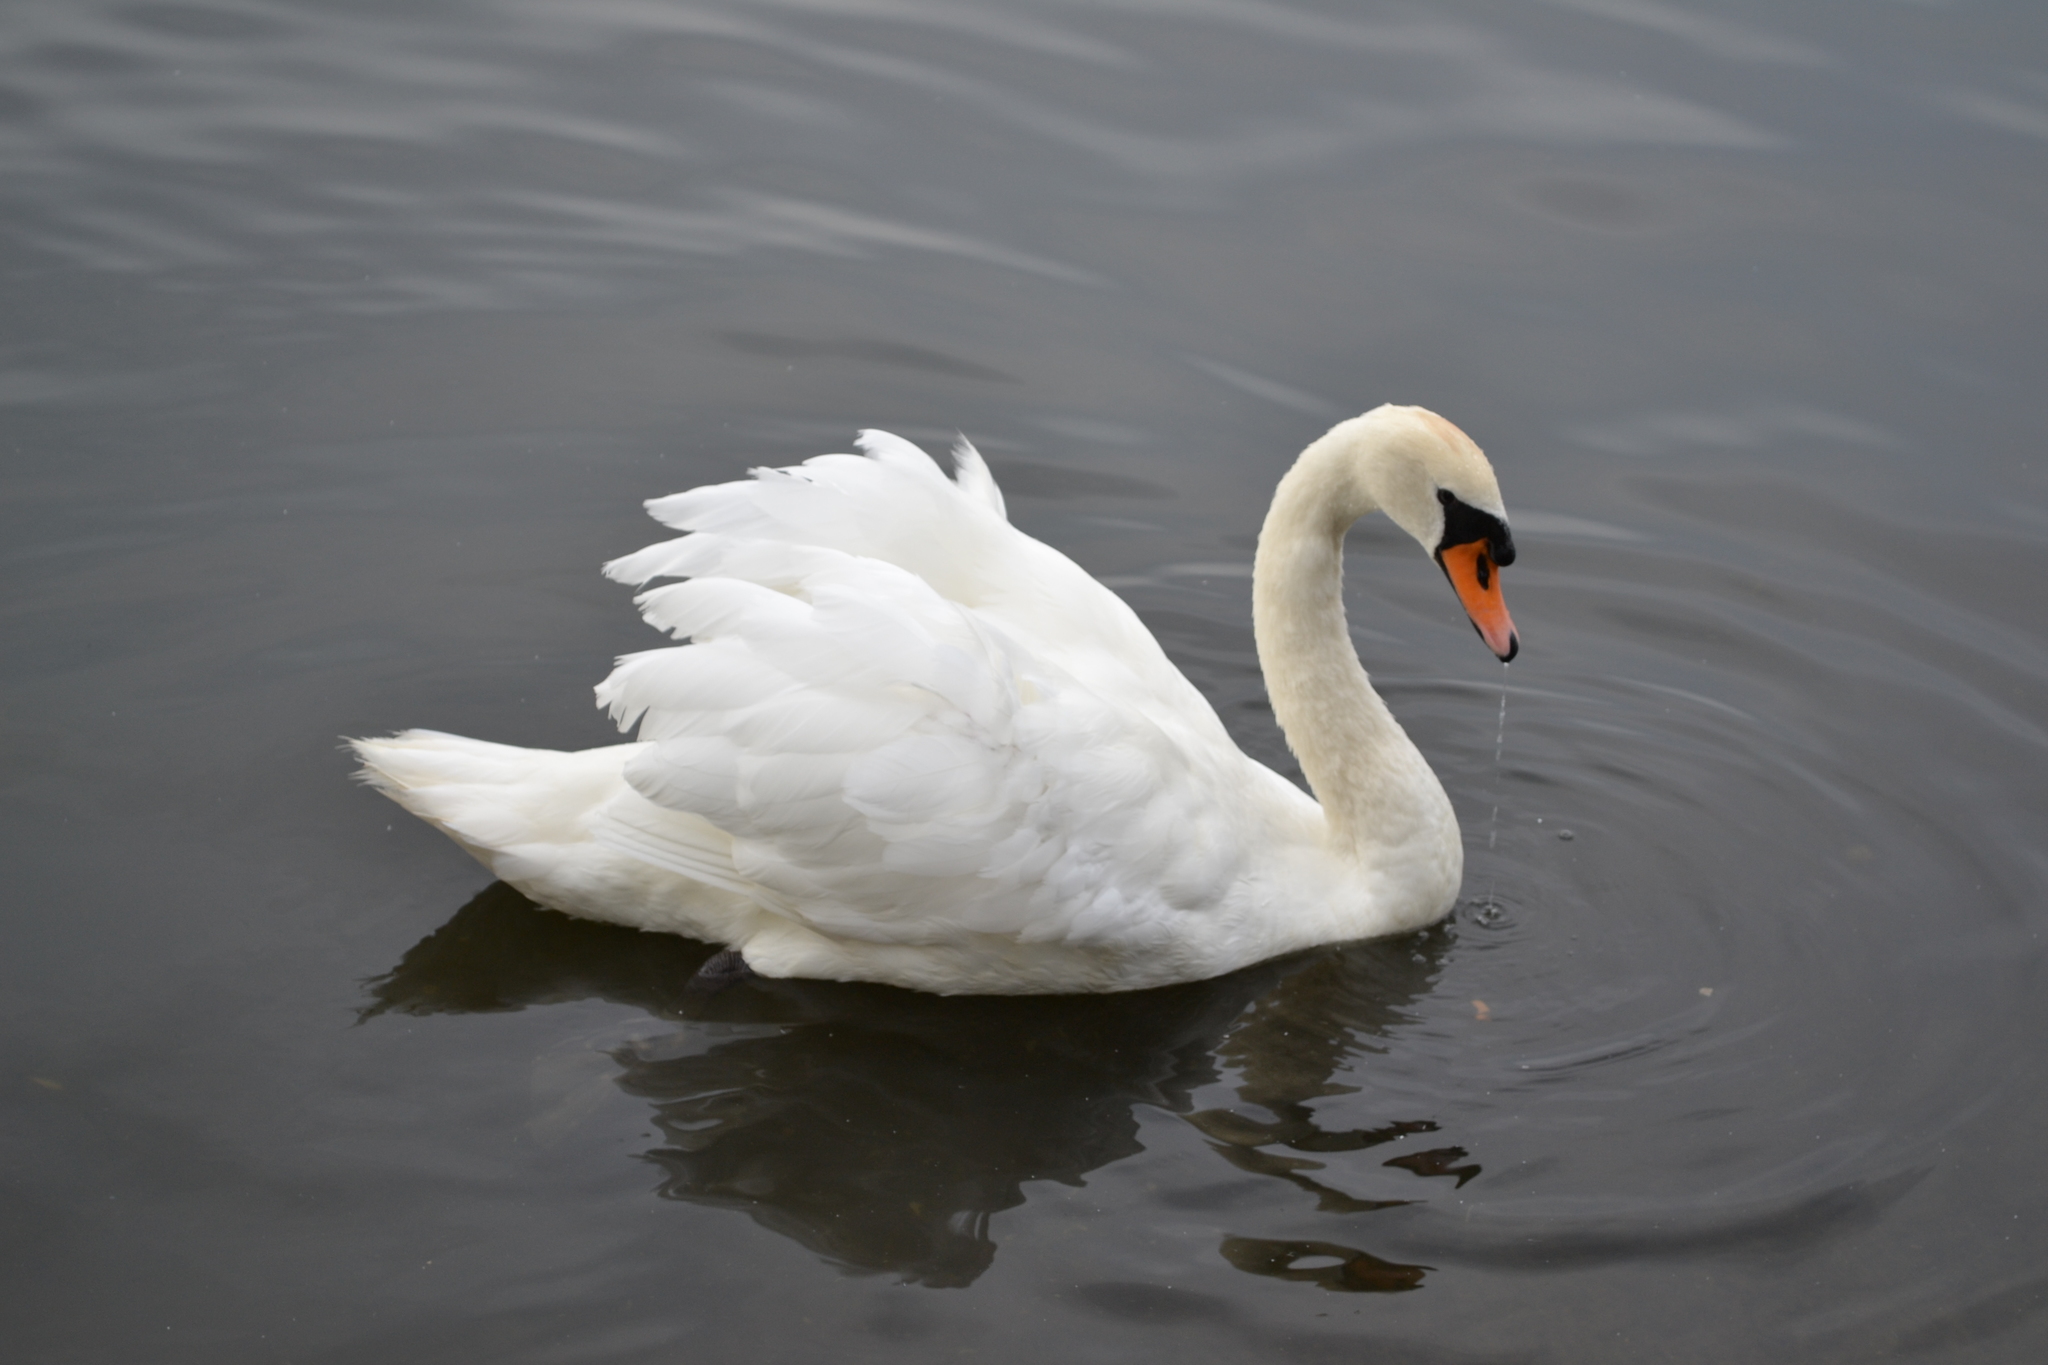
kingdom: Animalia
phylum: Chordata
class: Aves
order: Anseriformes
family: Anatidae
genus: Cygnus
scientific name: Cygnus olor
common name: Mute swan
